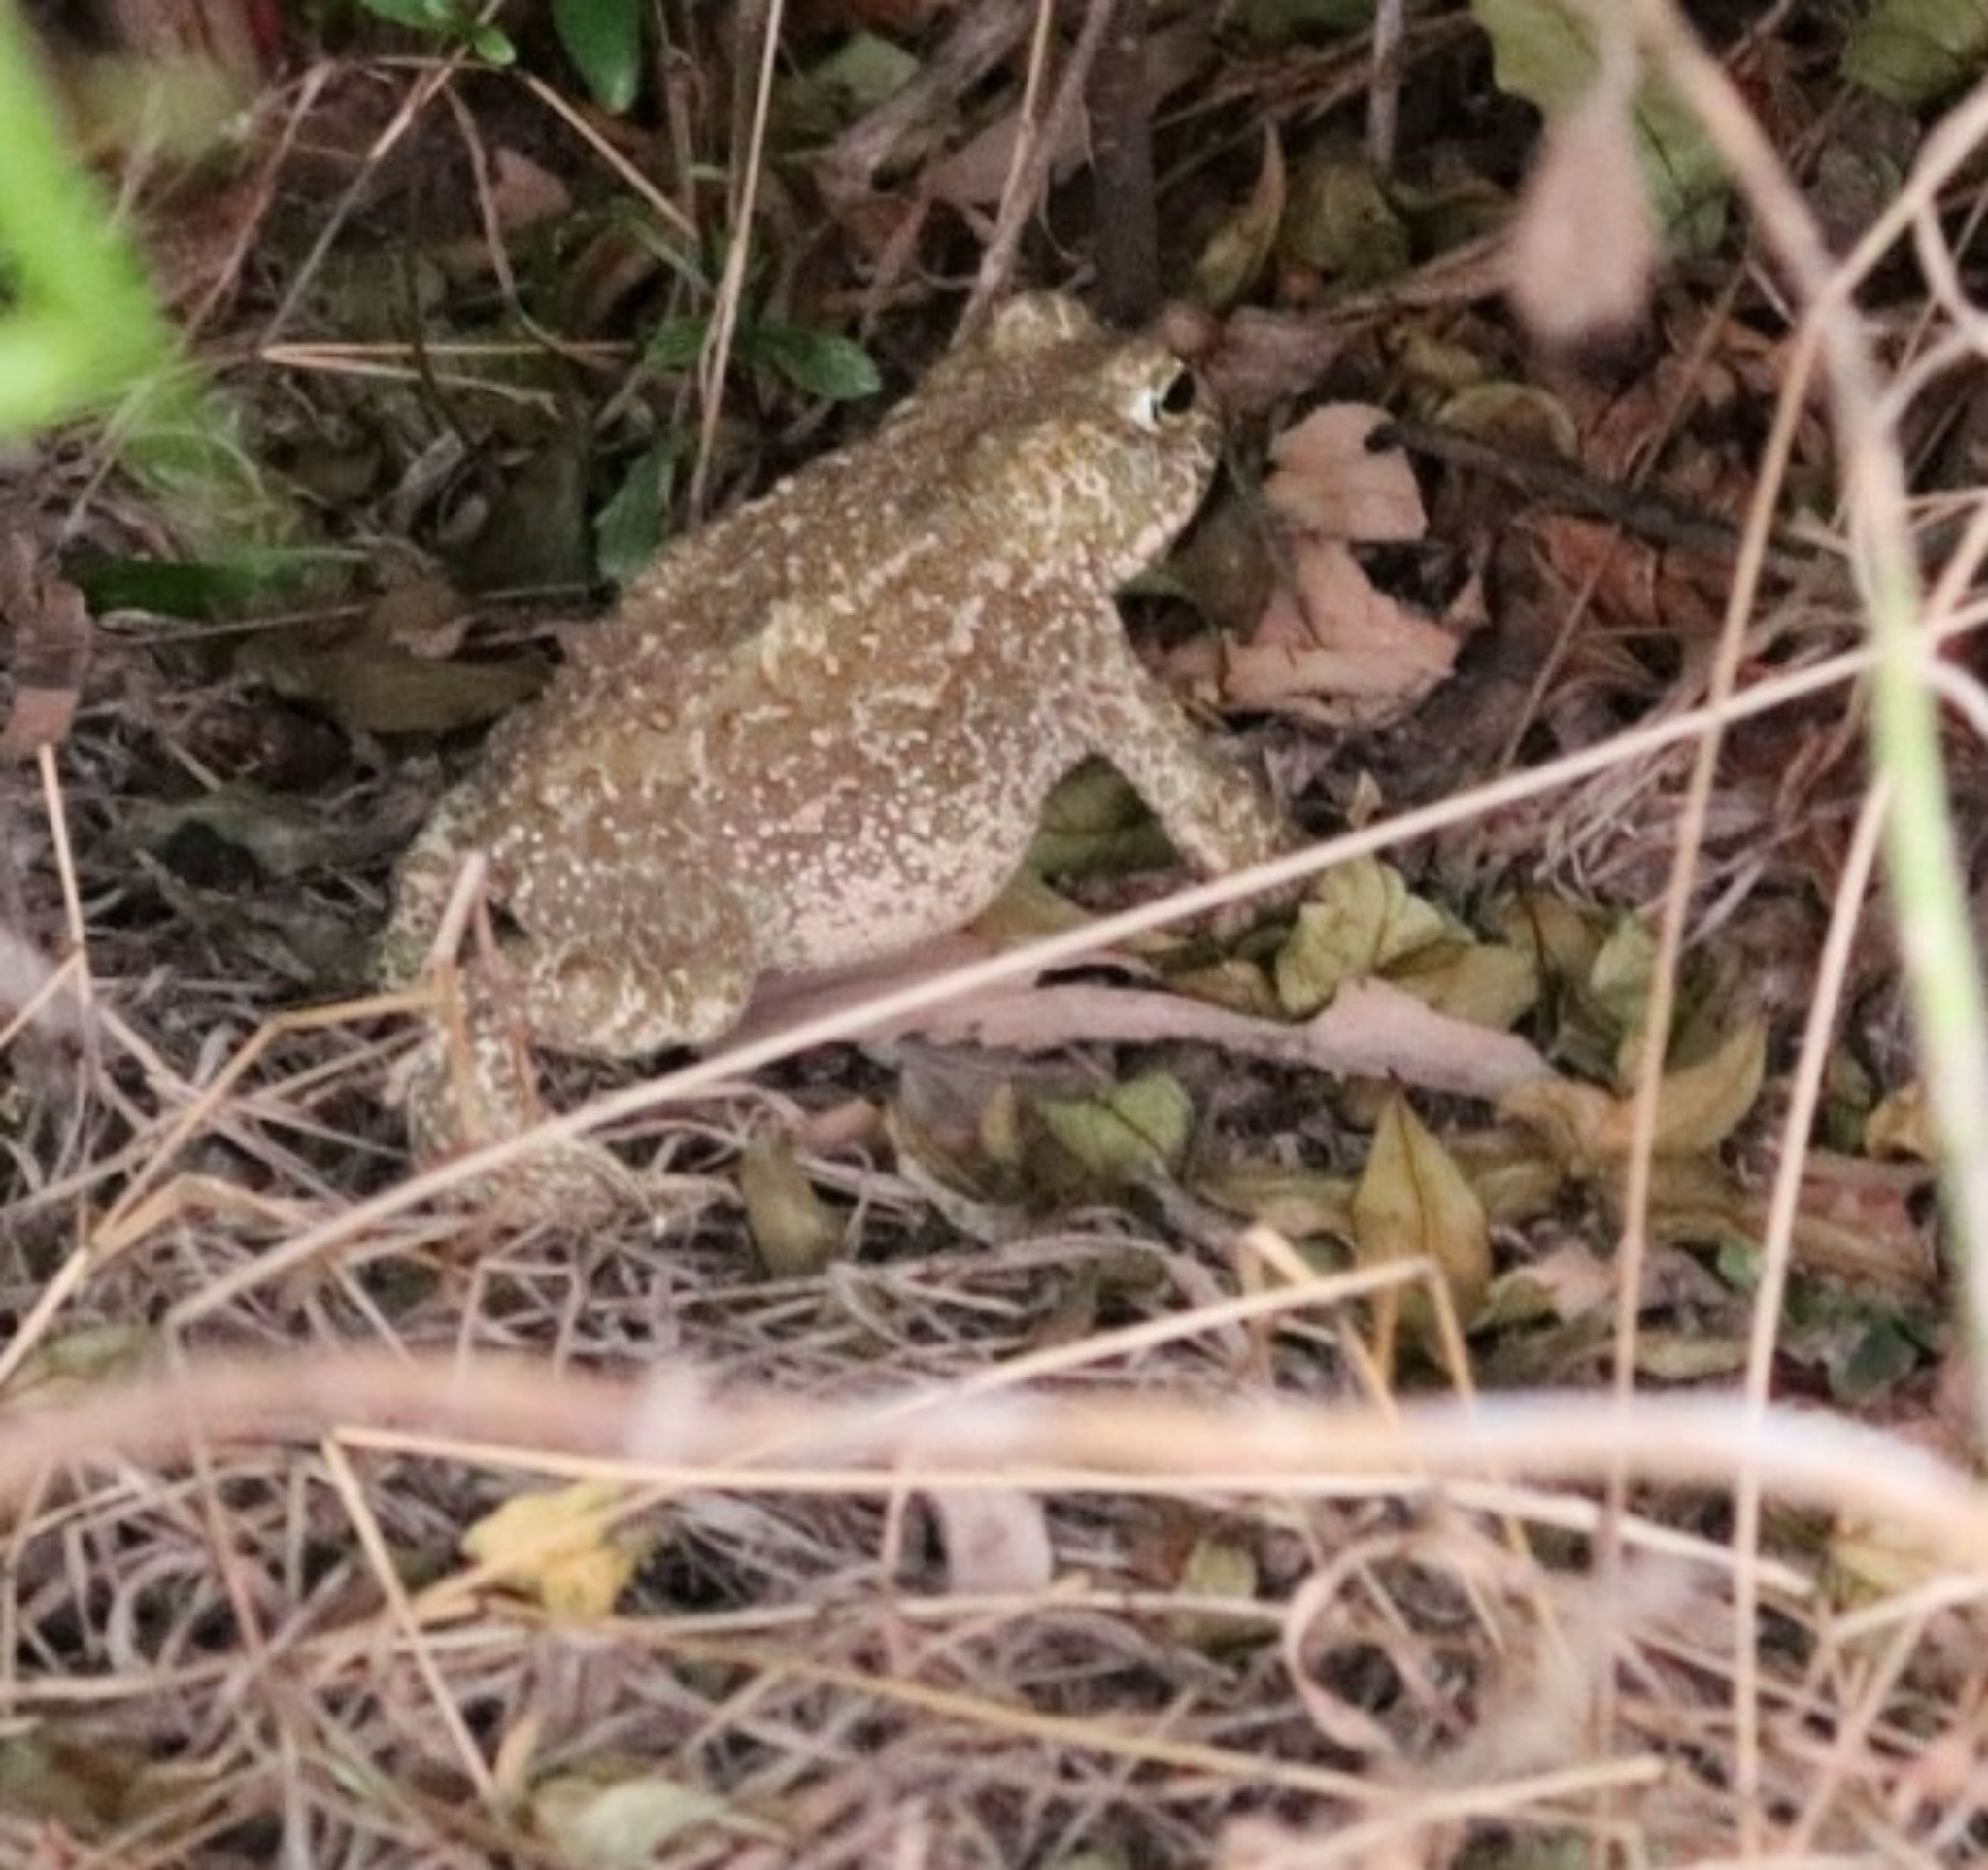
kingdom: Animalia
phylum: Chordata
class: Amphibia
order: Anura
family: Bufonidae
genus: Epidalea
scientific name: Epidalea calamita
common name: Natterjack toad
